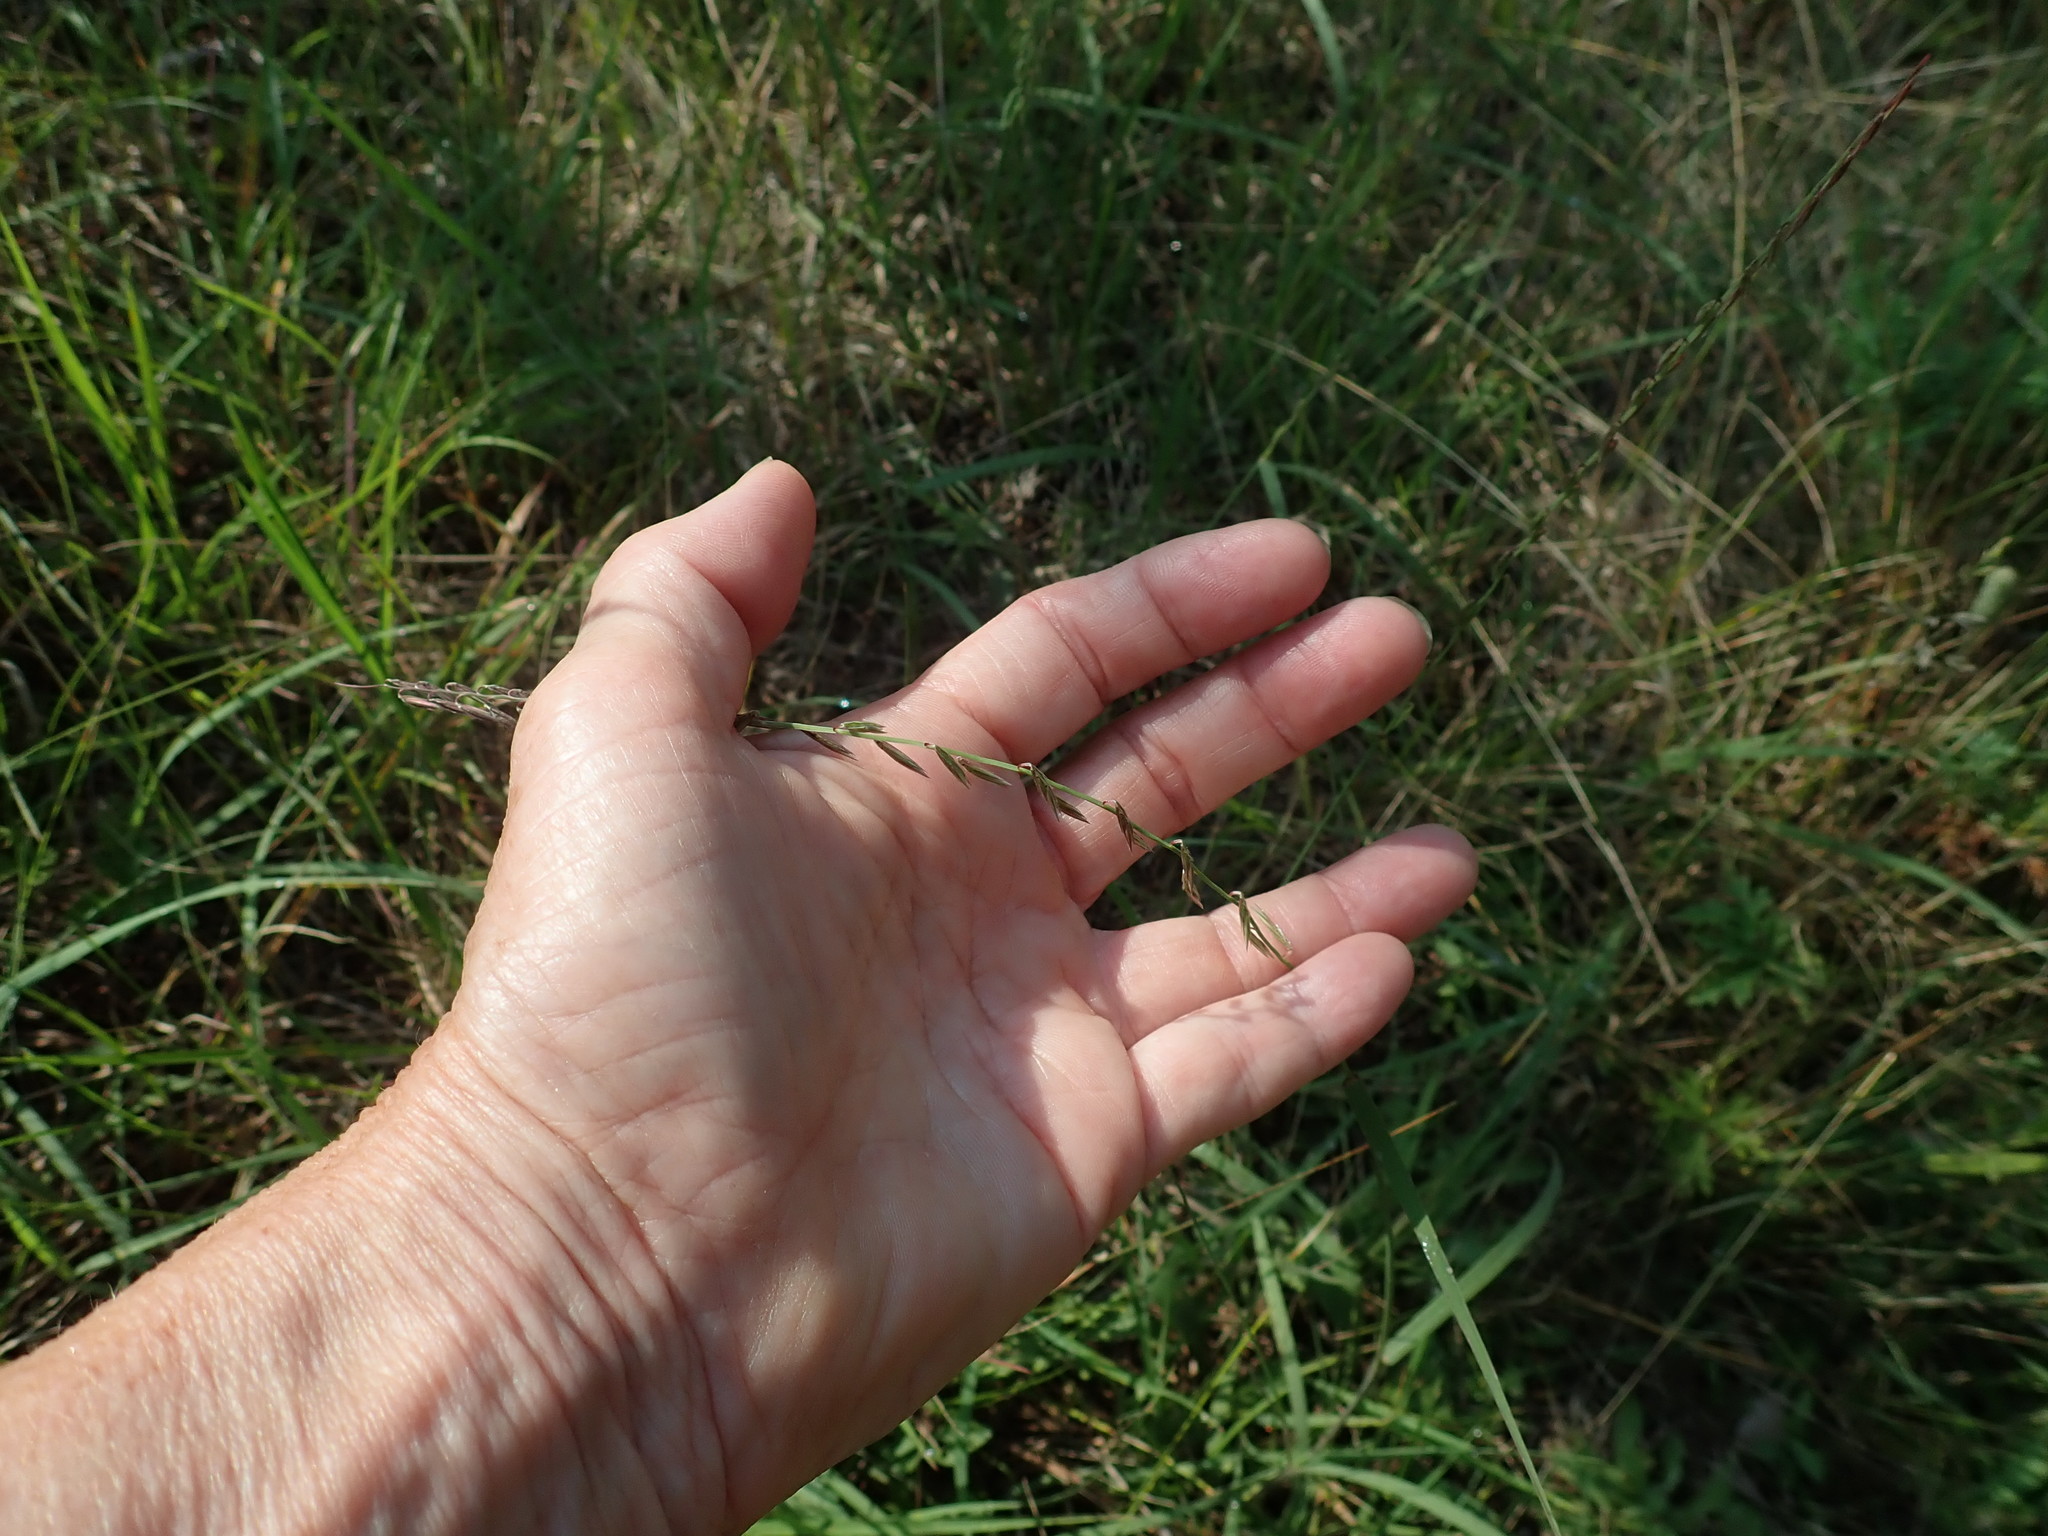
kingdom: Plantae
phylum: Tracheophyta
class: Liliopsida
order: Poales
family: Poaceae
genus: Bouteloua
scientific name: Bouteloua curtipendula
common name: Side-oats grama
